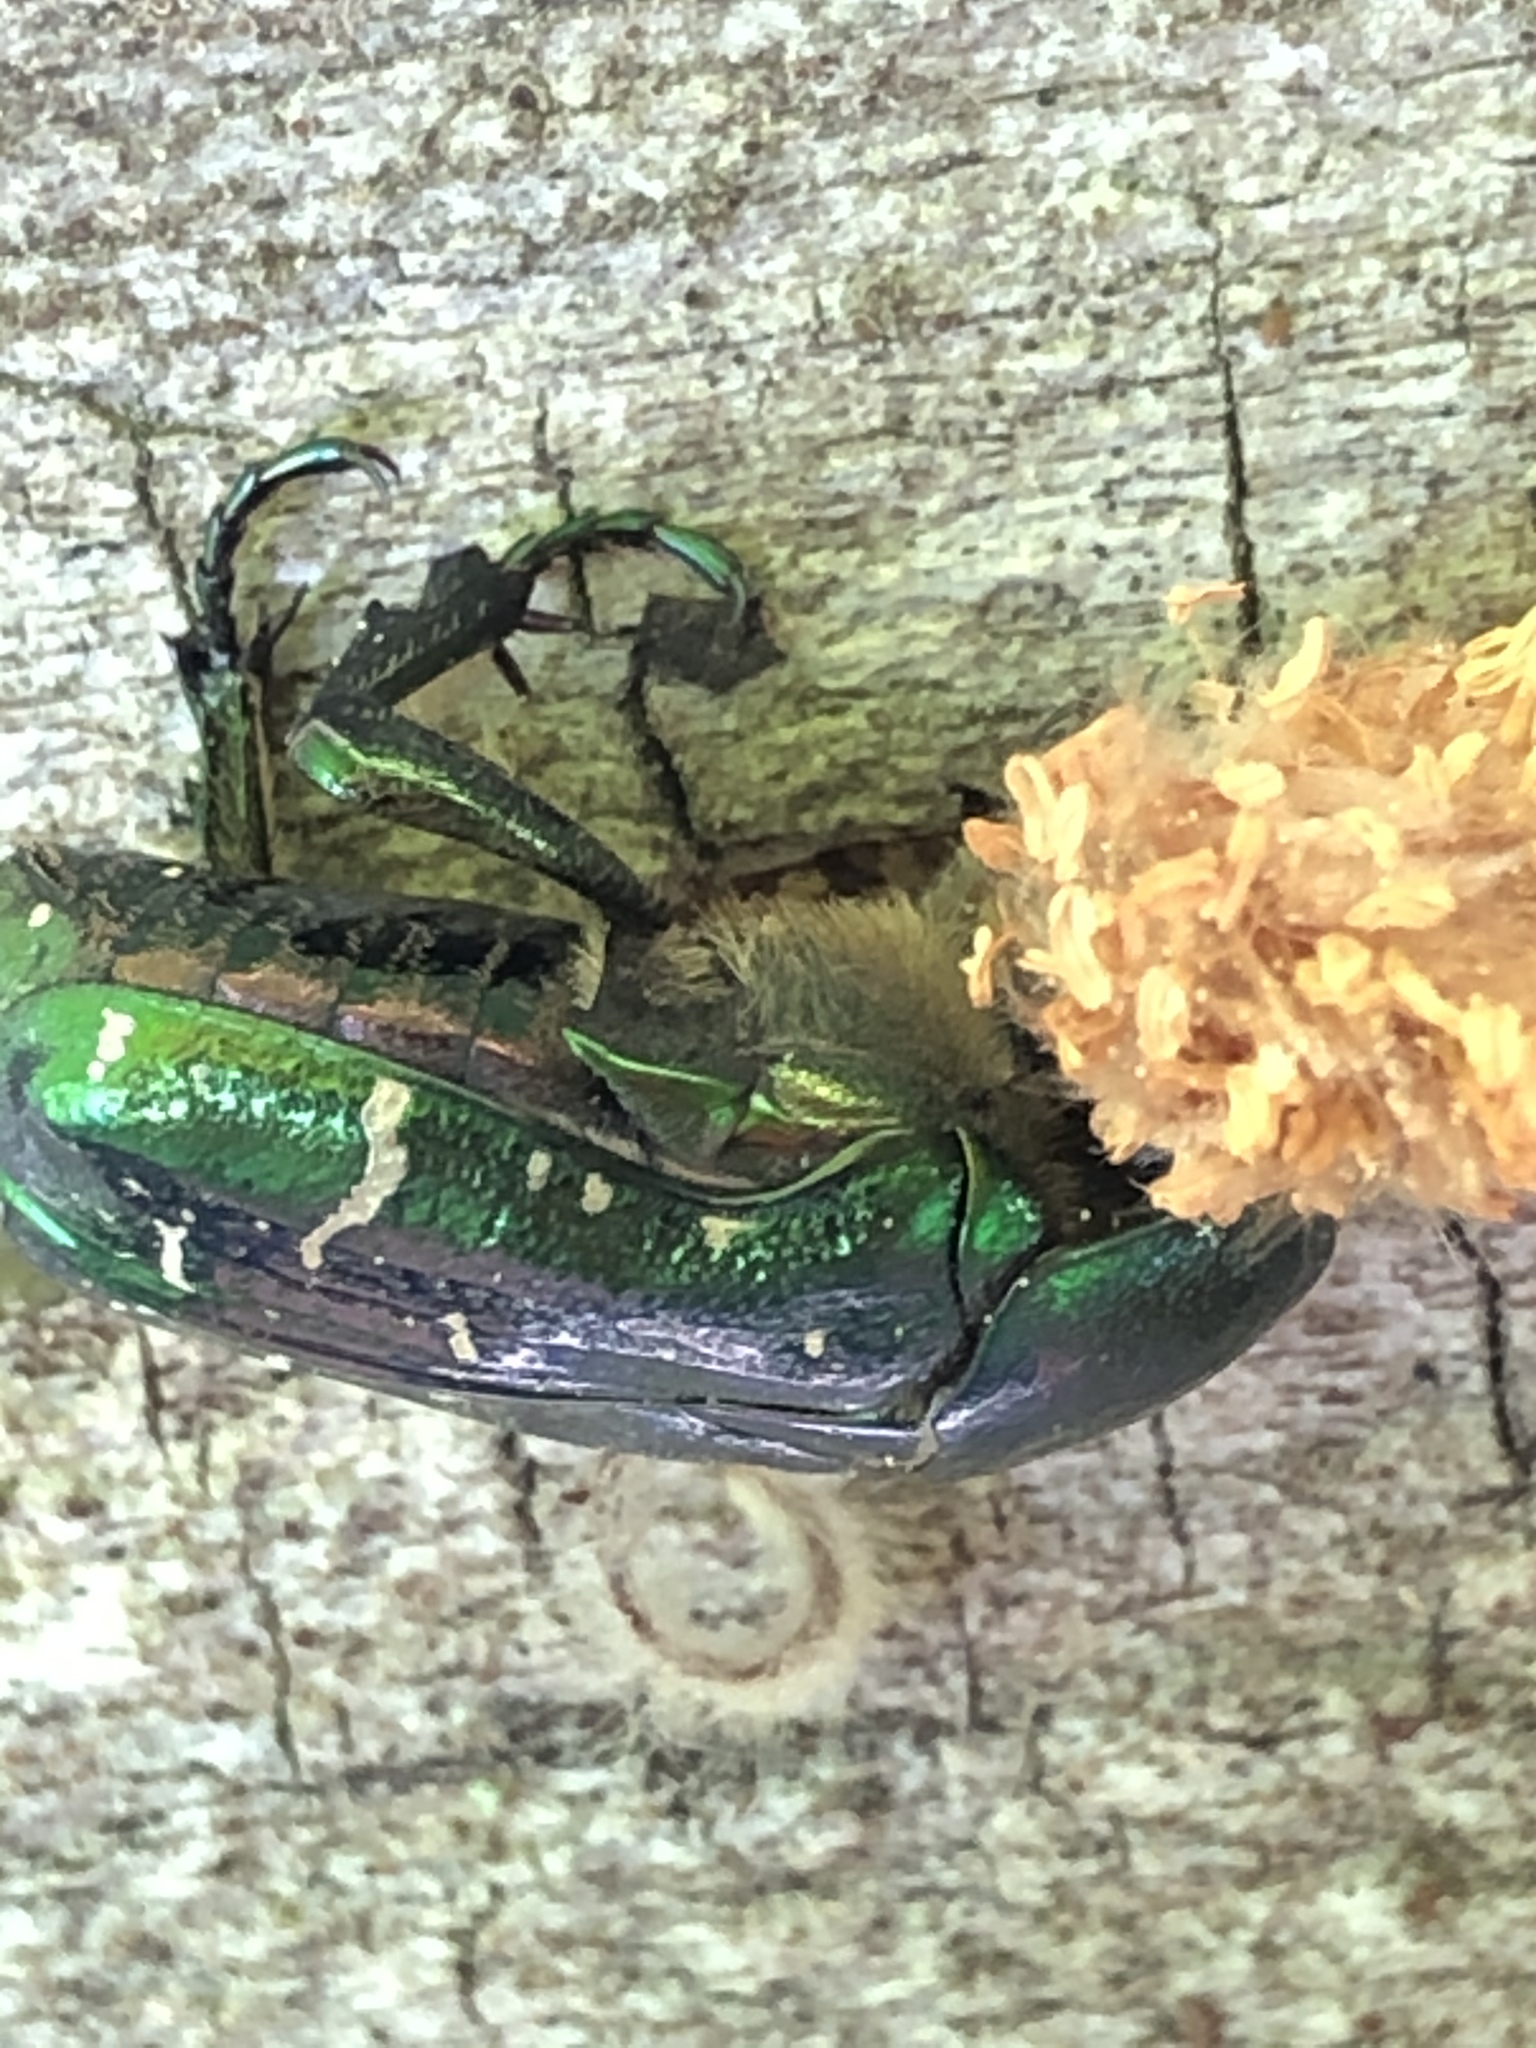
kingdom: Animalia
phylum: Arthropoda
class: Insecta
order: Coleoptera
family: Scarabaeidae
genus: Cetonia
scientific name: Cetonia aurata
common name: Rose chafer
